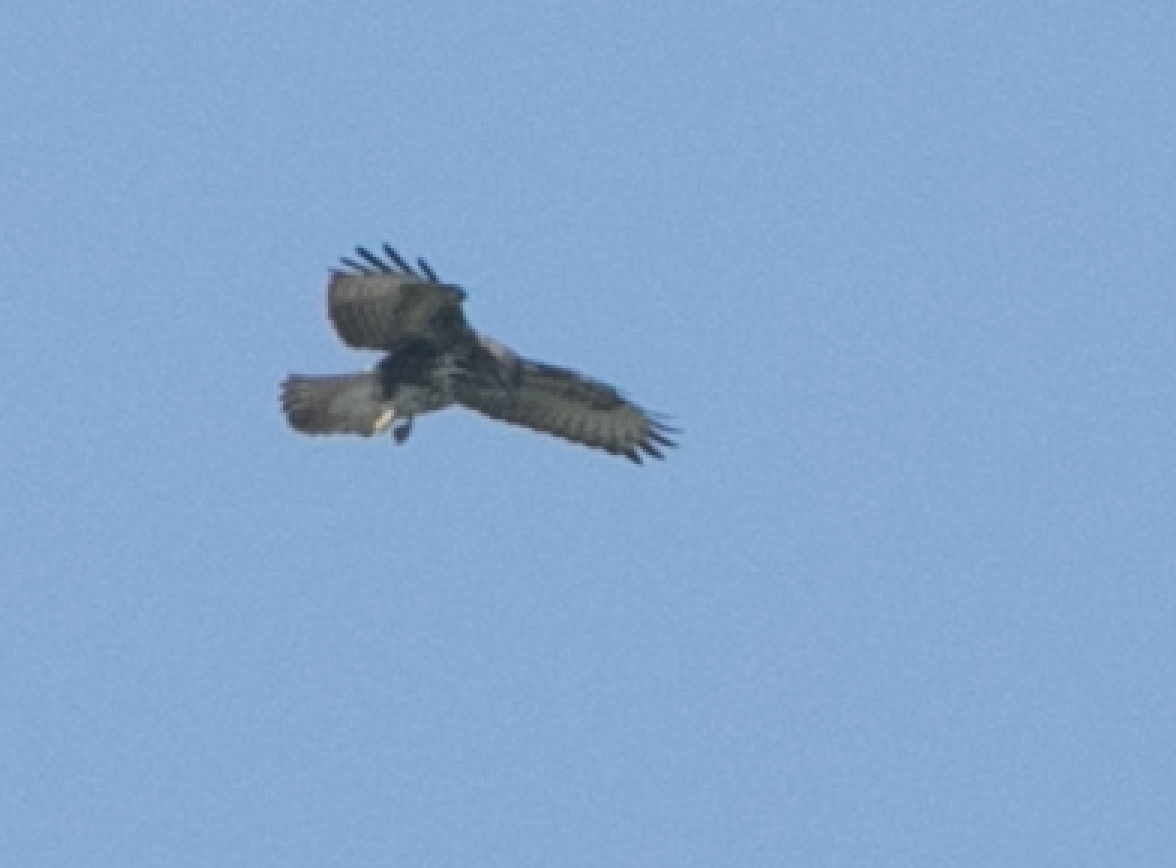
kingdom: Animalia
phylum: Chordata
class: Aves
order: Accipitriformes
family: Accipitridae
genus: Buteo
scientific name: Buteo buteo
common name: Common buzzard
